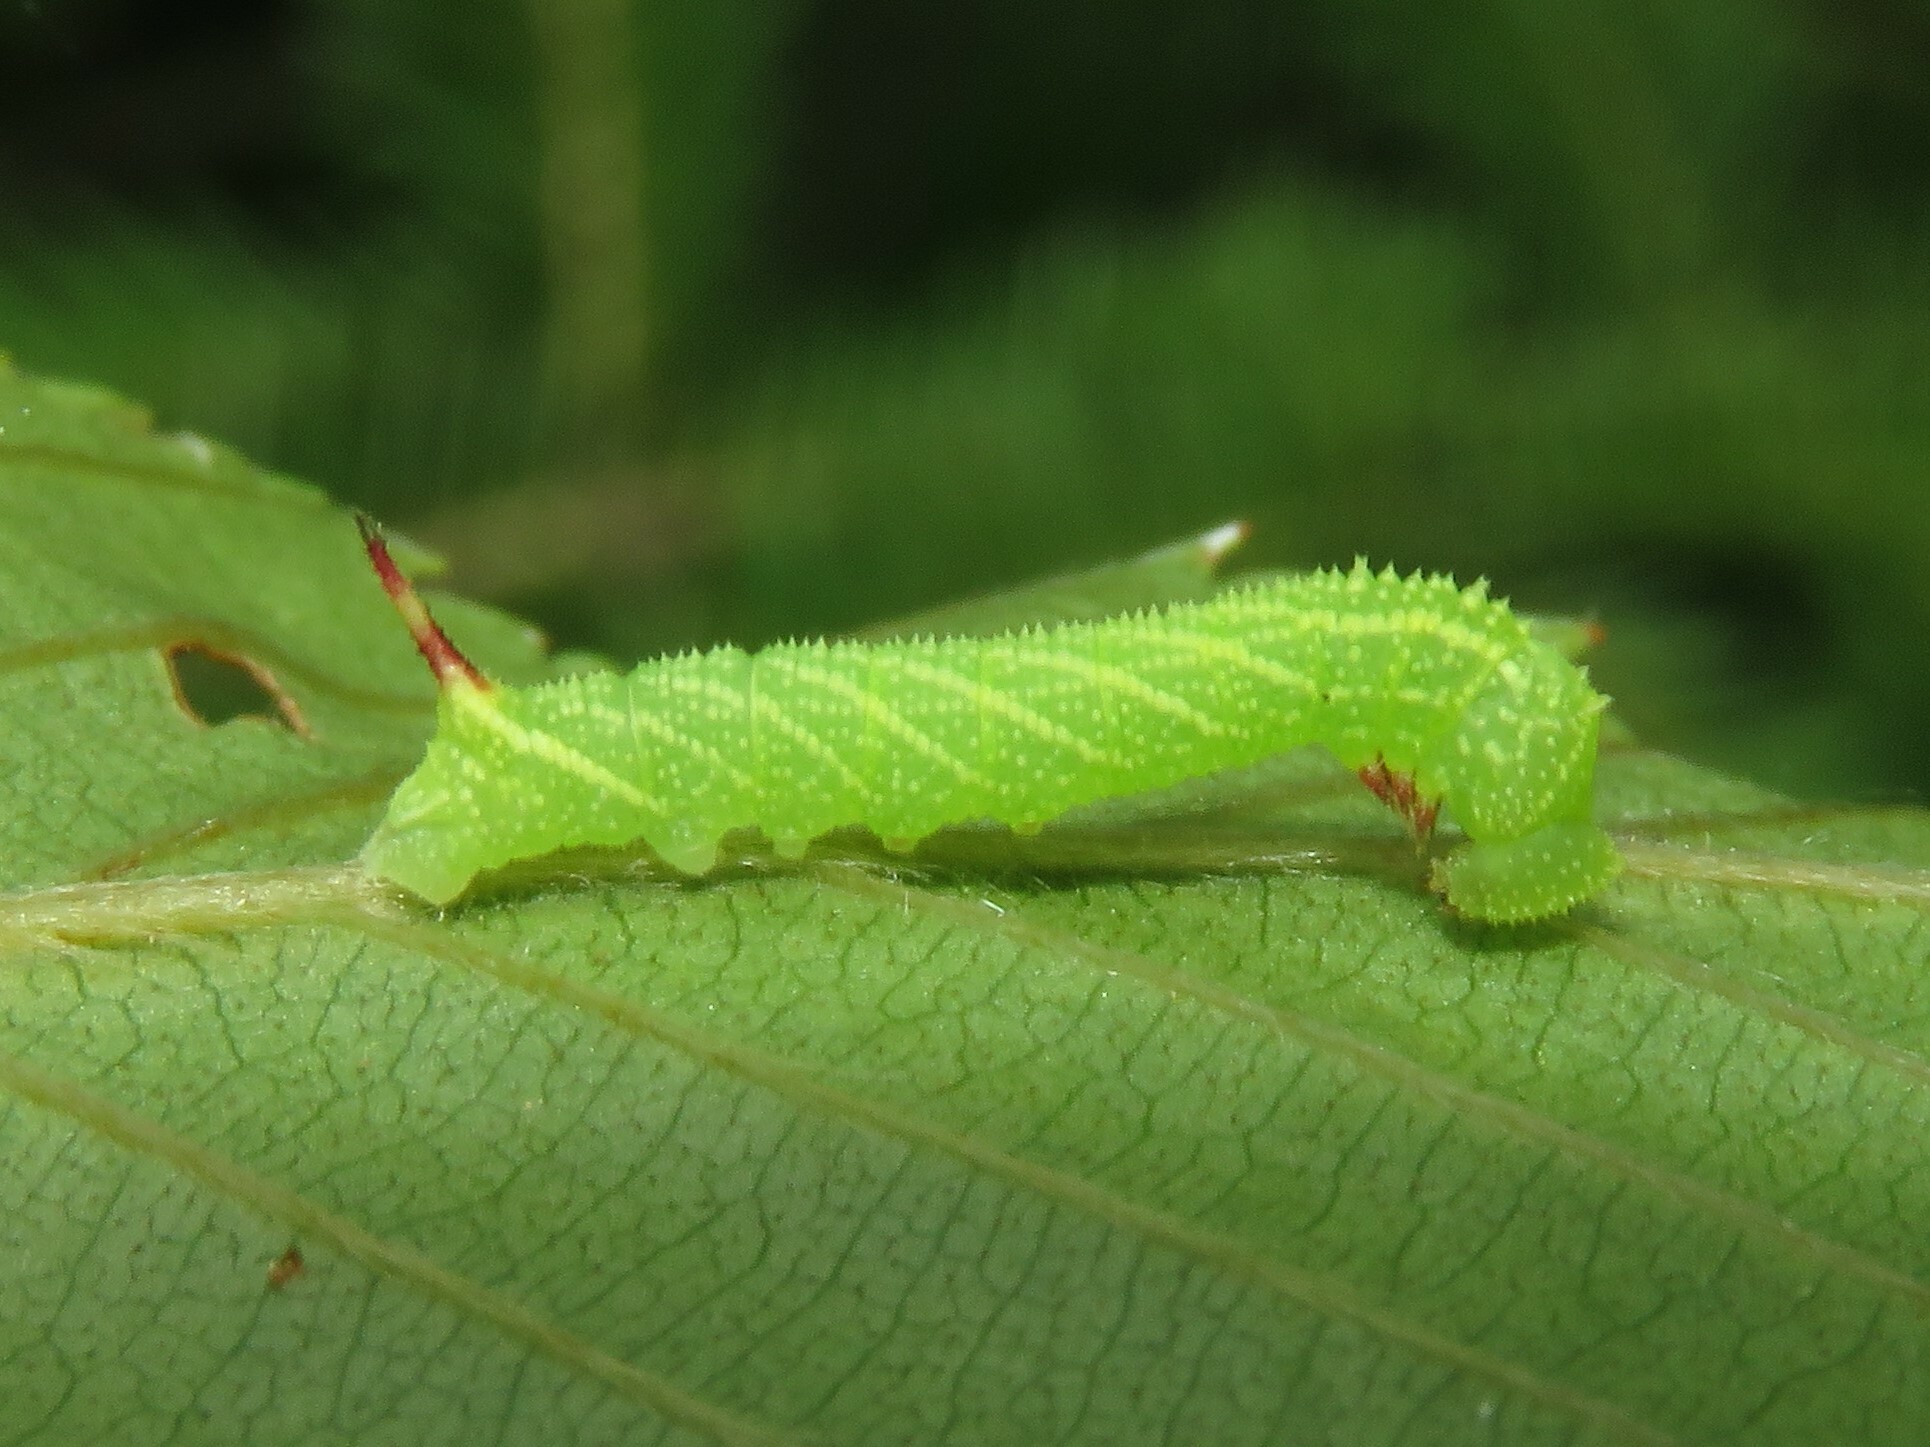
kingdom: Animalia
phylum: Arthropoda
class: Insecta
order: Lepidoptera
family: Sphingidae
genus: Paonias
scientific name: Paonias excaecata
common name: Blind-eyed sphinx
